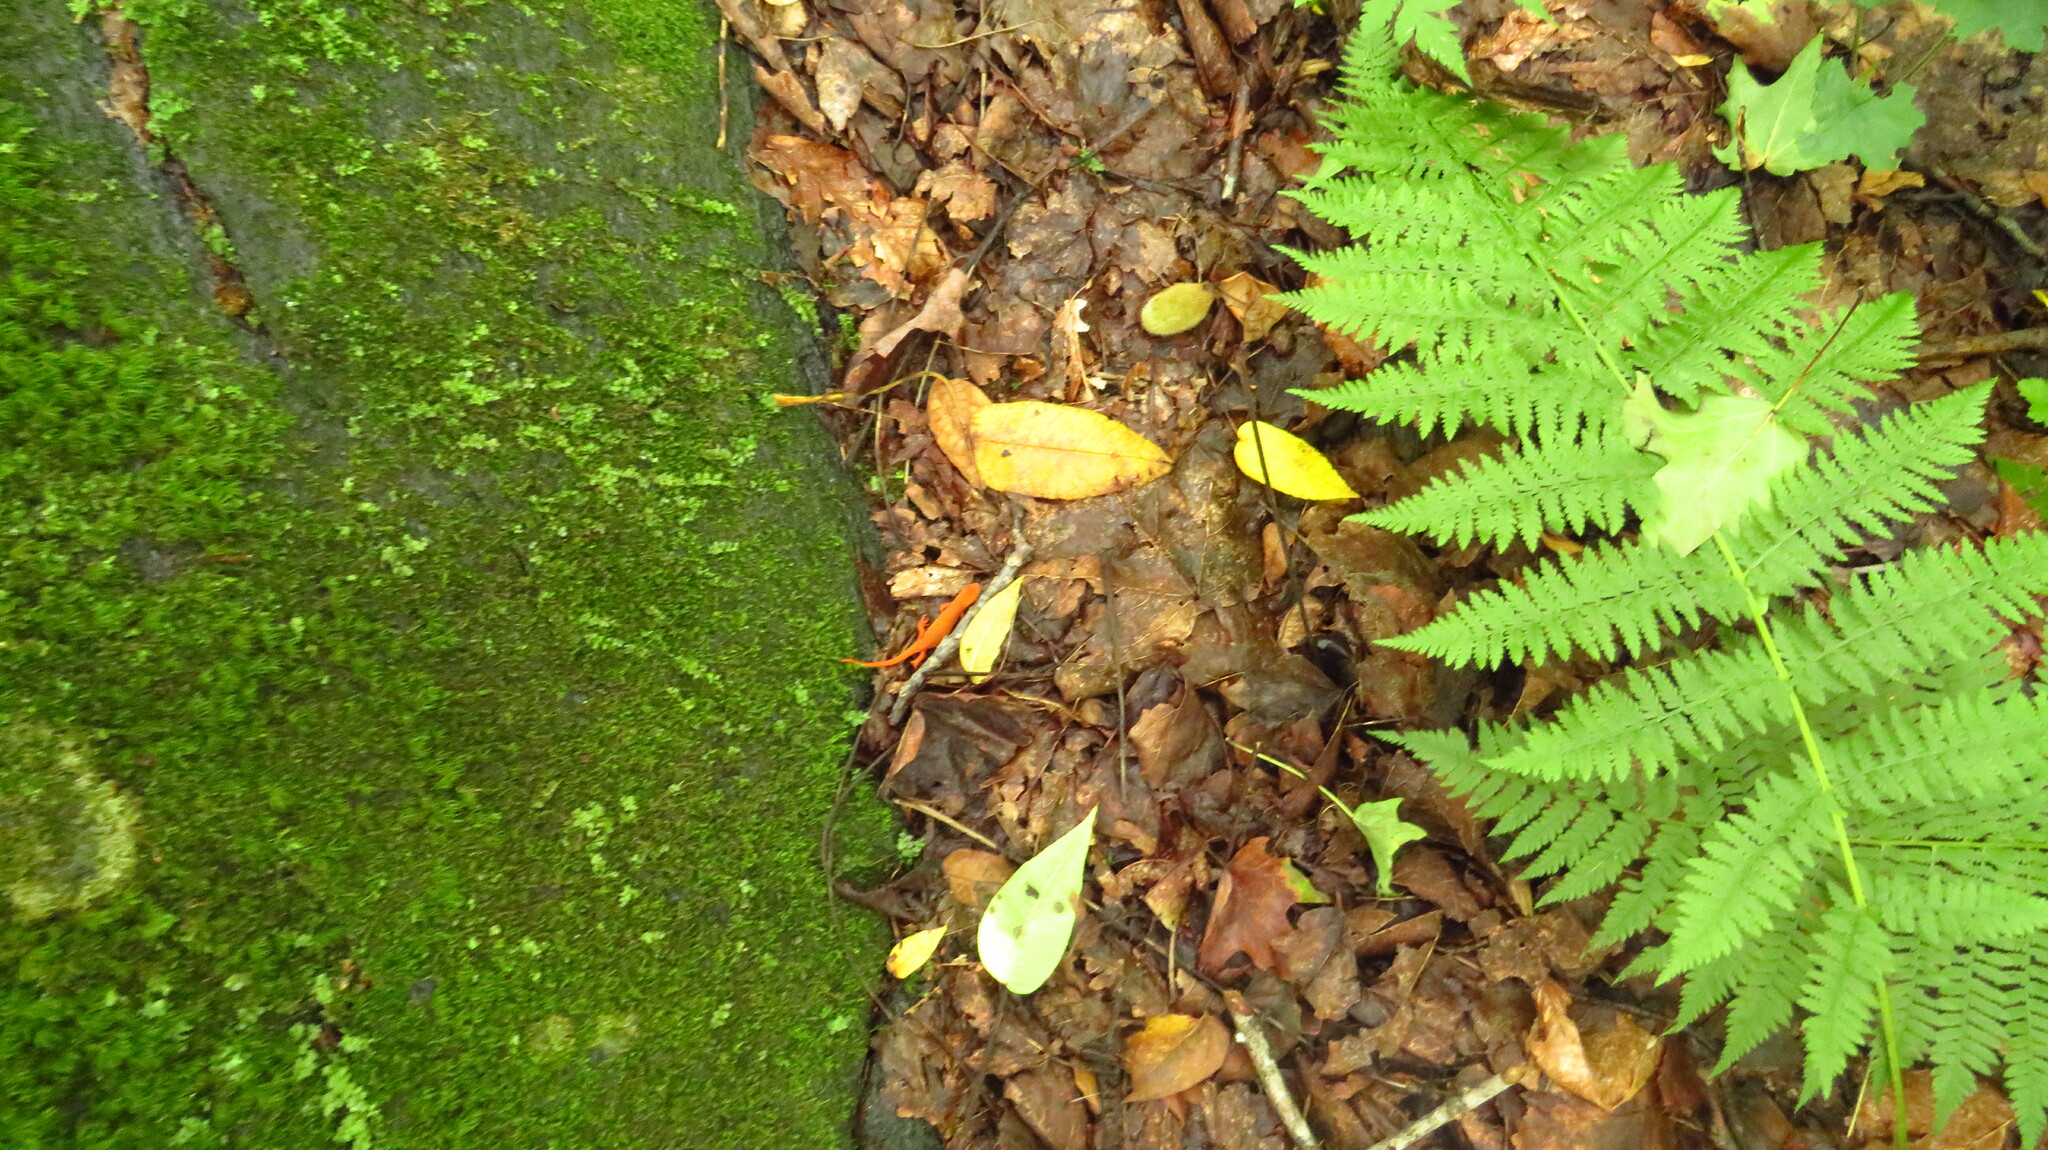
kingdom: Animalia
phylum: Chordata
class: Amphibia
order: Caudata
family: Salamandridae
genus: Notophthalmus
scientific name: Notophthalmus viridescens
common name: Eastern newt
